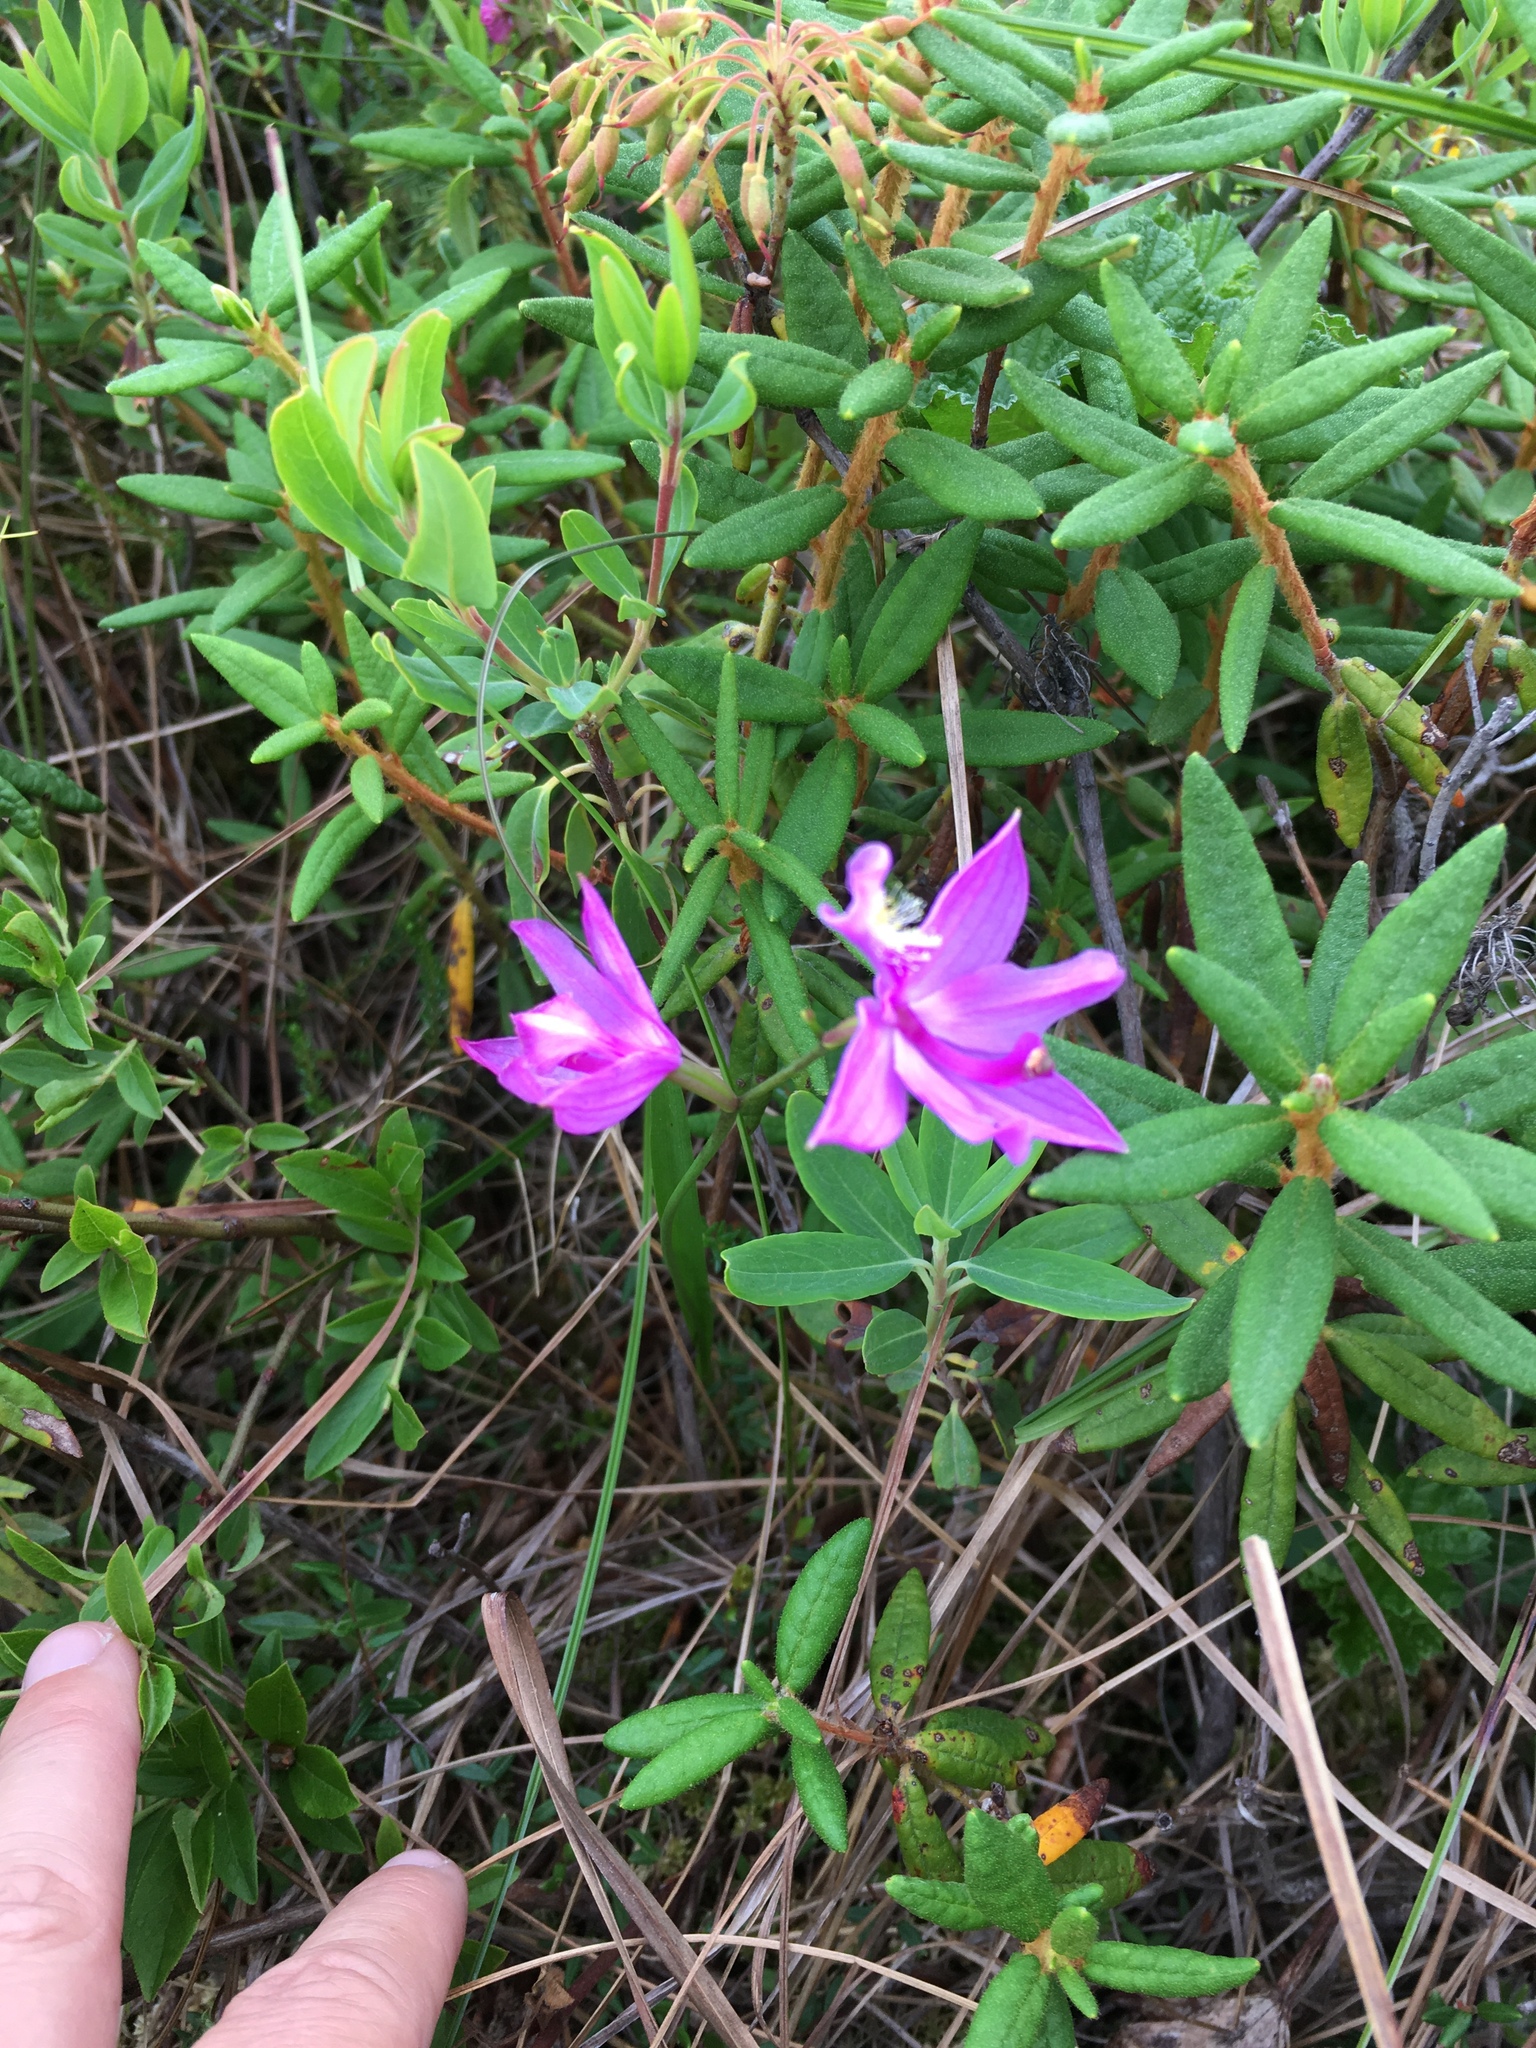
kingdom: Plantae
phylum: Tracheophyta
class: Liliopsida
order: Asparagales
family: Orchidaceae
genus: Calopogon
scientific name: Calopogon tuberosus
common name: Grass-pink
